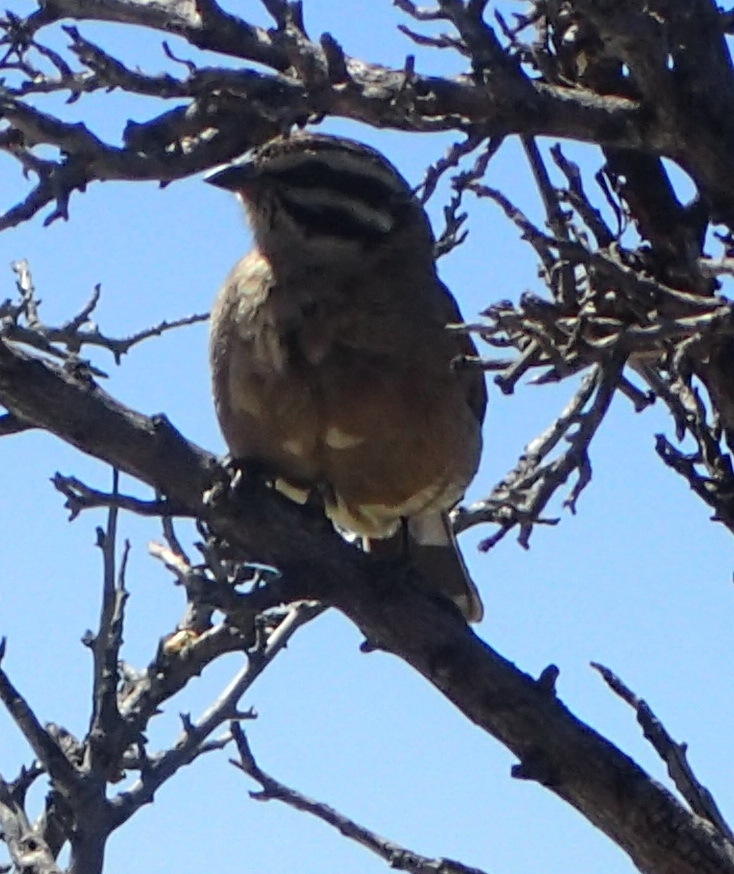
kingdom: Animalia
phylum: Chordata
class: Aves
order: Passeriformes
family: Emberizidae
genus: Emberiza
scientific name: Emberiza capensis
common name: Cape bunting
